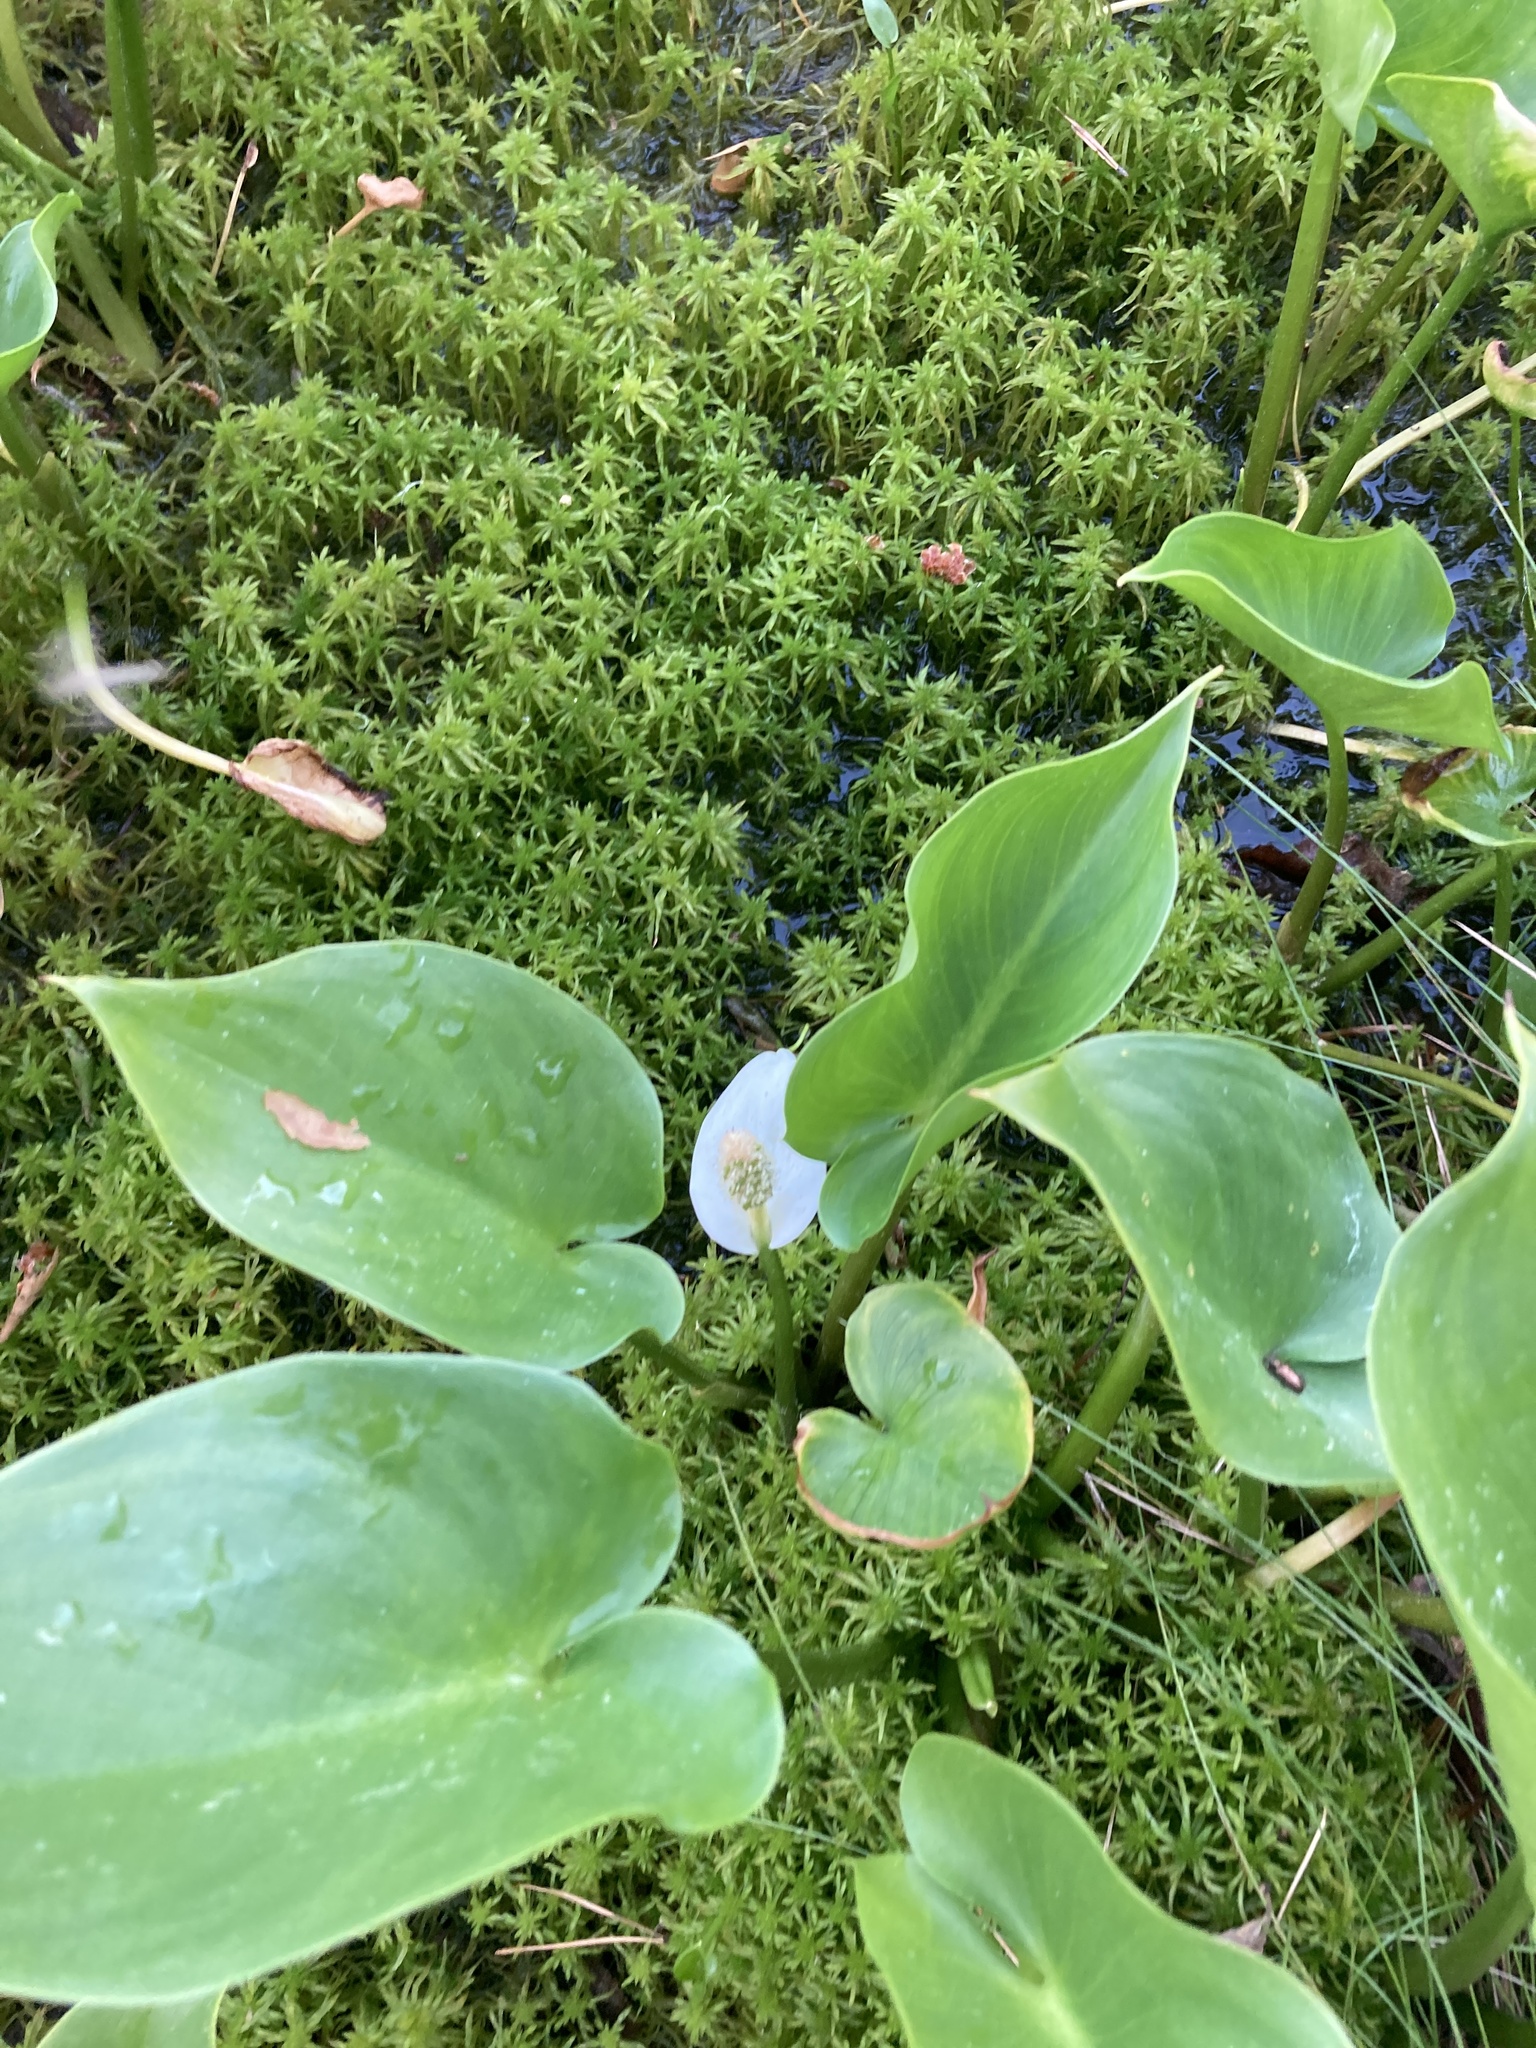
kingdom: Plantae
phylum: Tracheophyta
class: Liliopsida
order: Alismatales
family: Araceae
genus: Calla
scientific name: Calla palustris
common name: Bog arum
